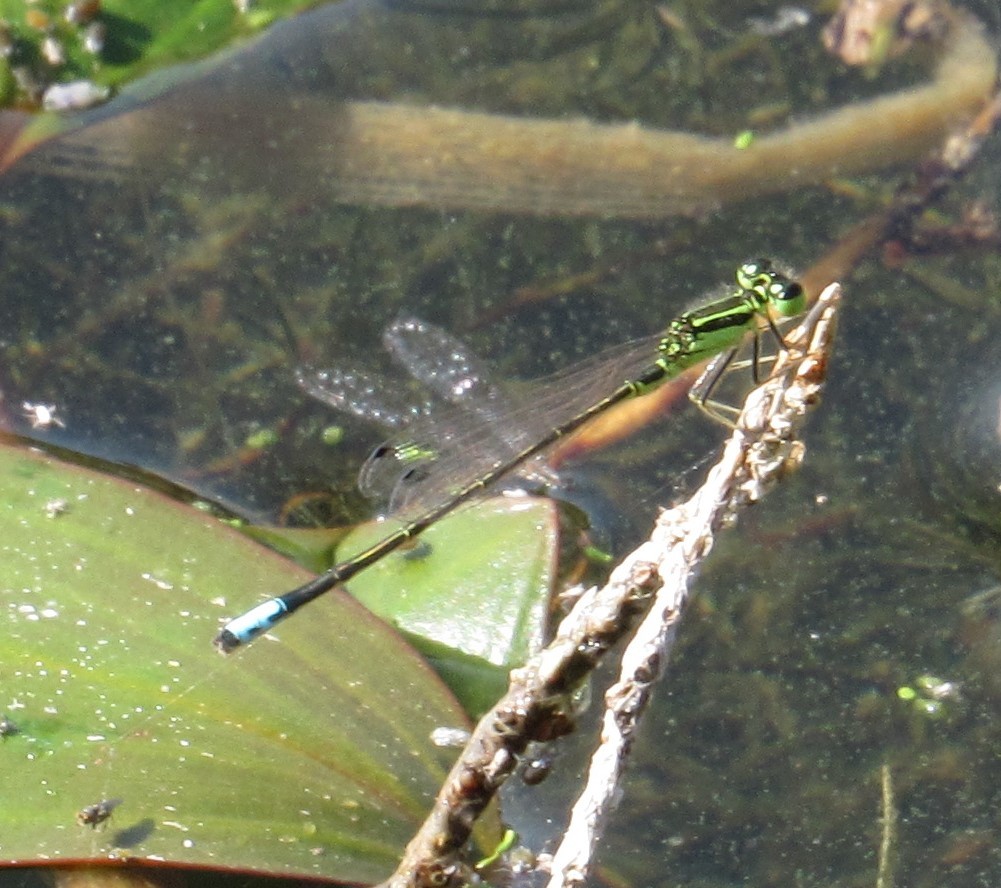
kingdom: Animalia
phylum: Arthropoda
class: Insecta
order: Odonata
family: Coenagrionidae
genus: Ischnura
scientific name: Ischnura verticalis
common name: Eastern forktail
